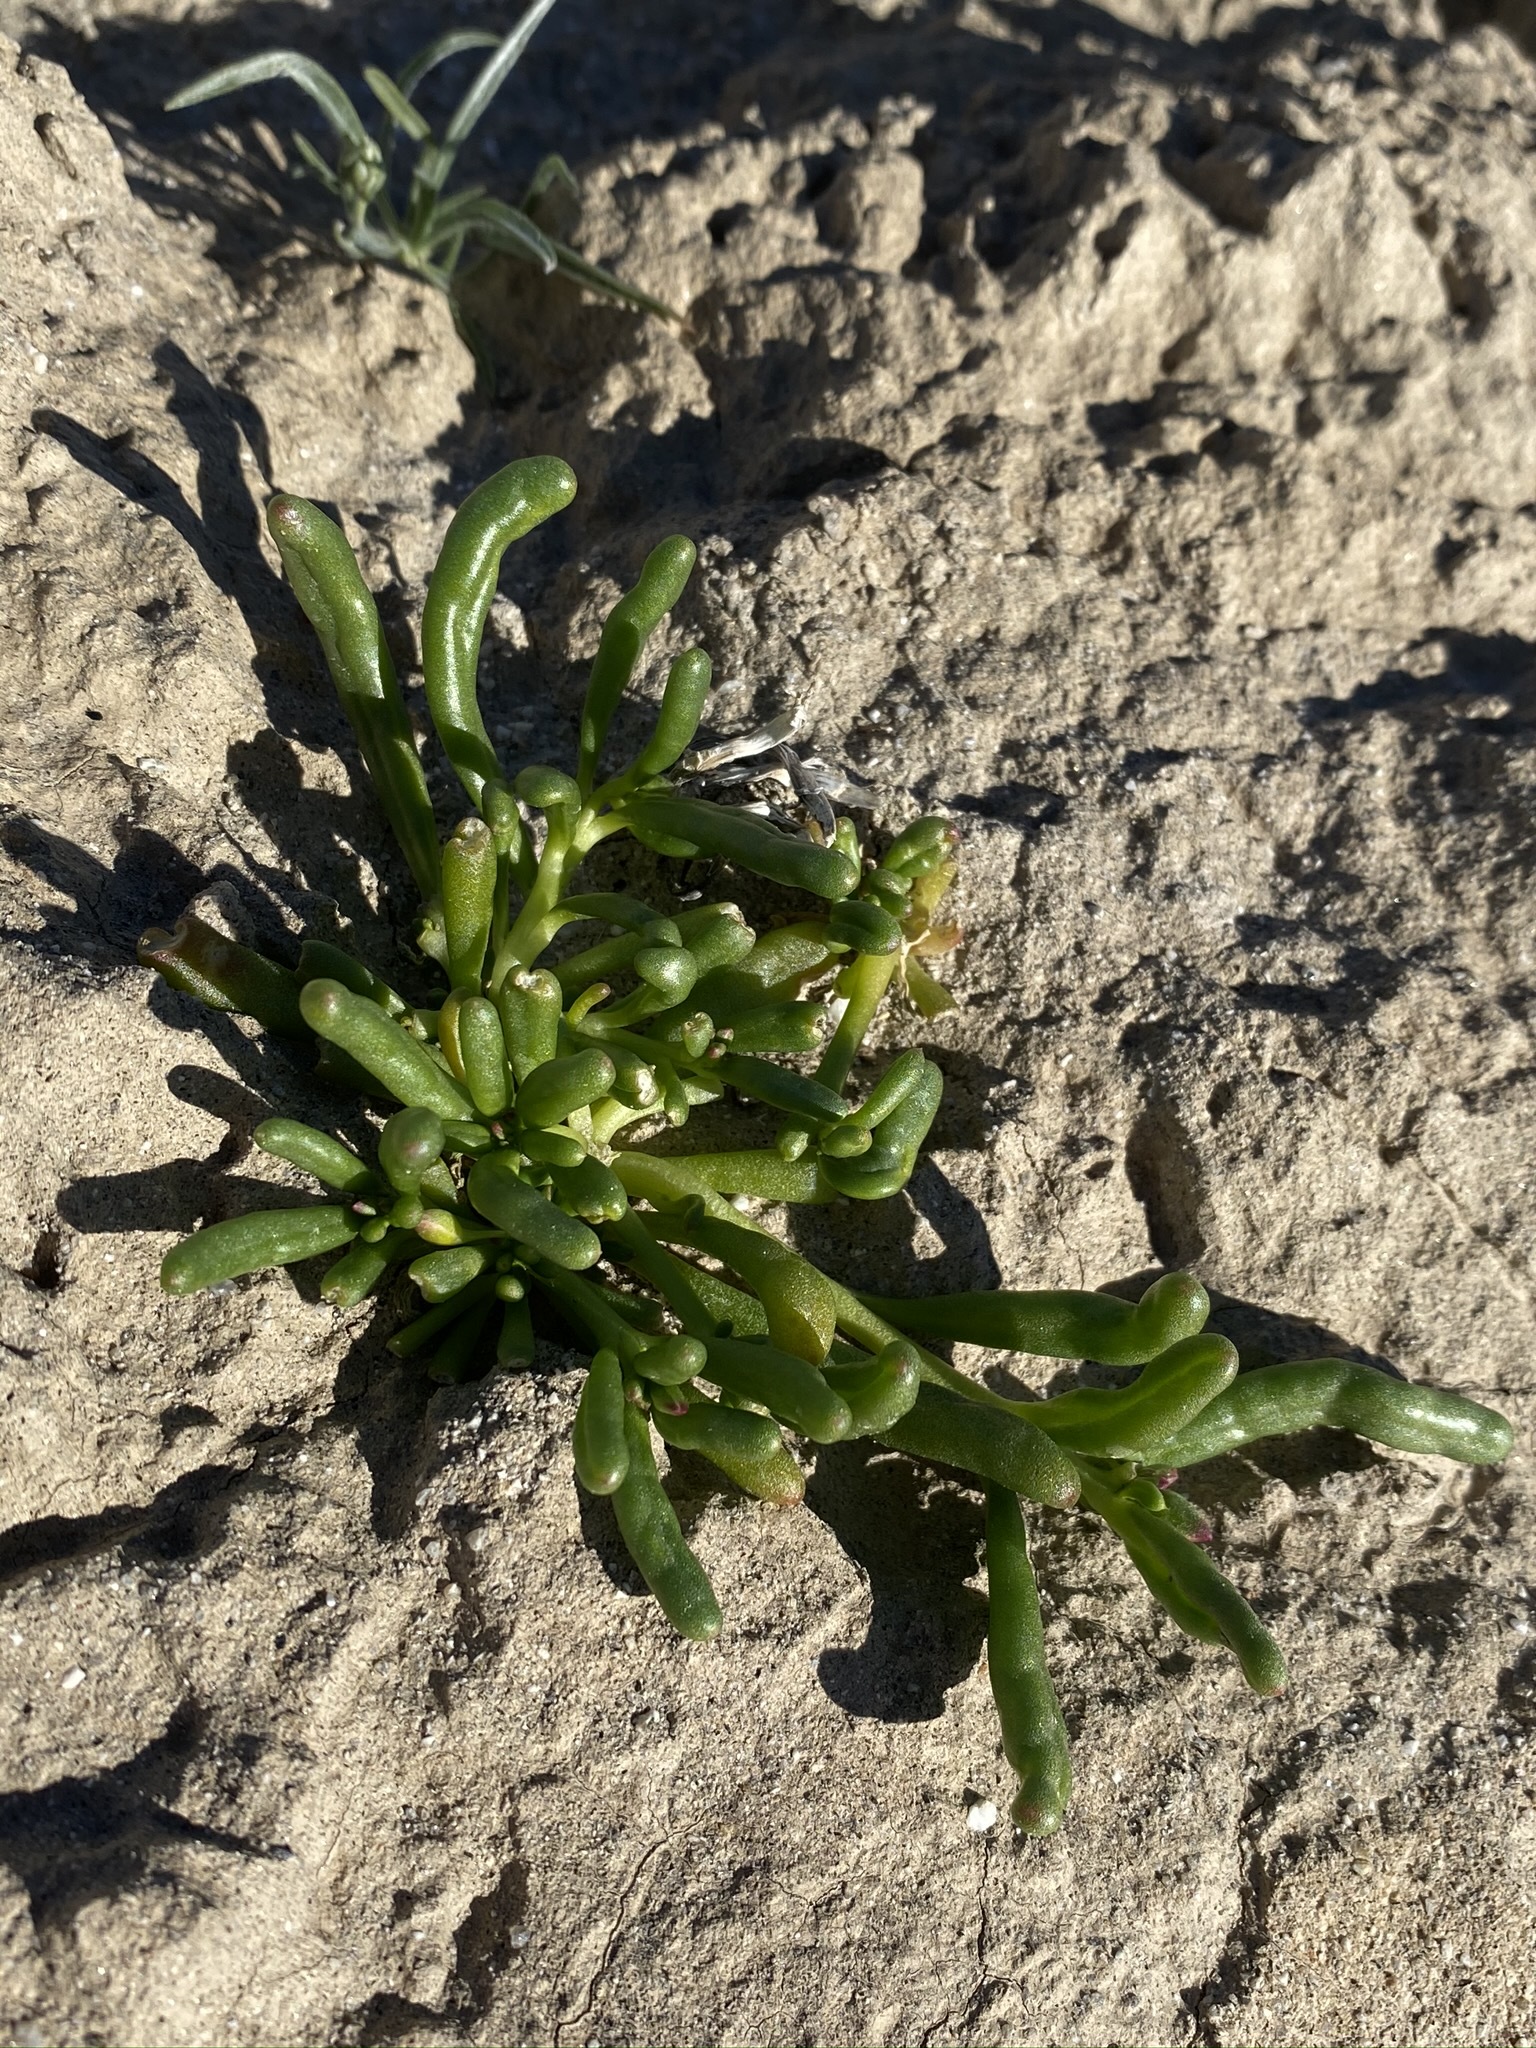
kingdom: Plantae
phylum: Tracheophyta
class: Magnoliopsida
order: Caryophyllales
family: Montiaceae
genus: Thingia
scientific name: Thingia ambigua
